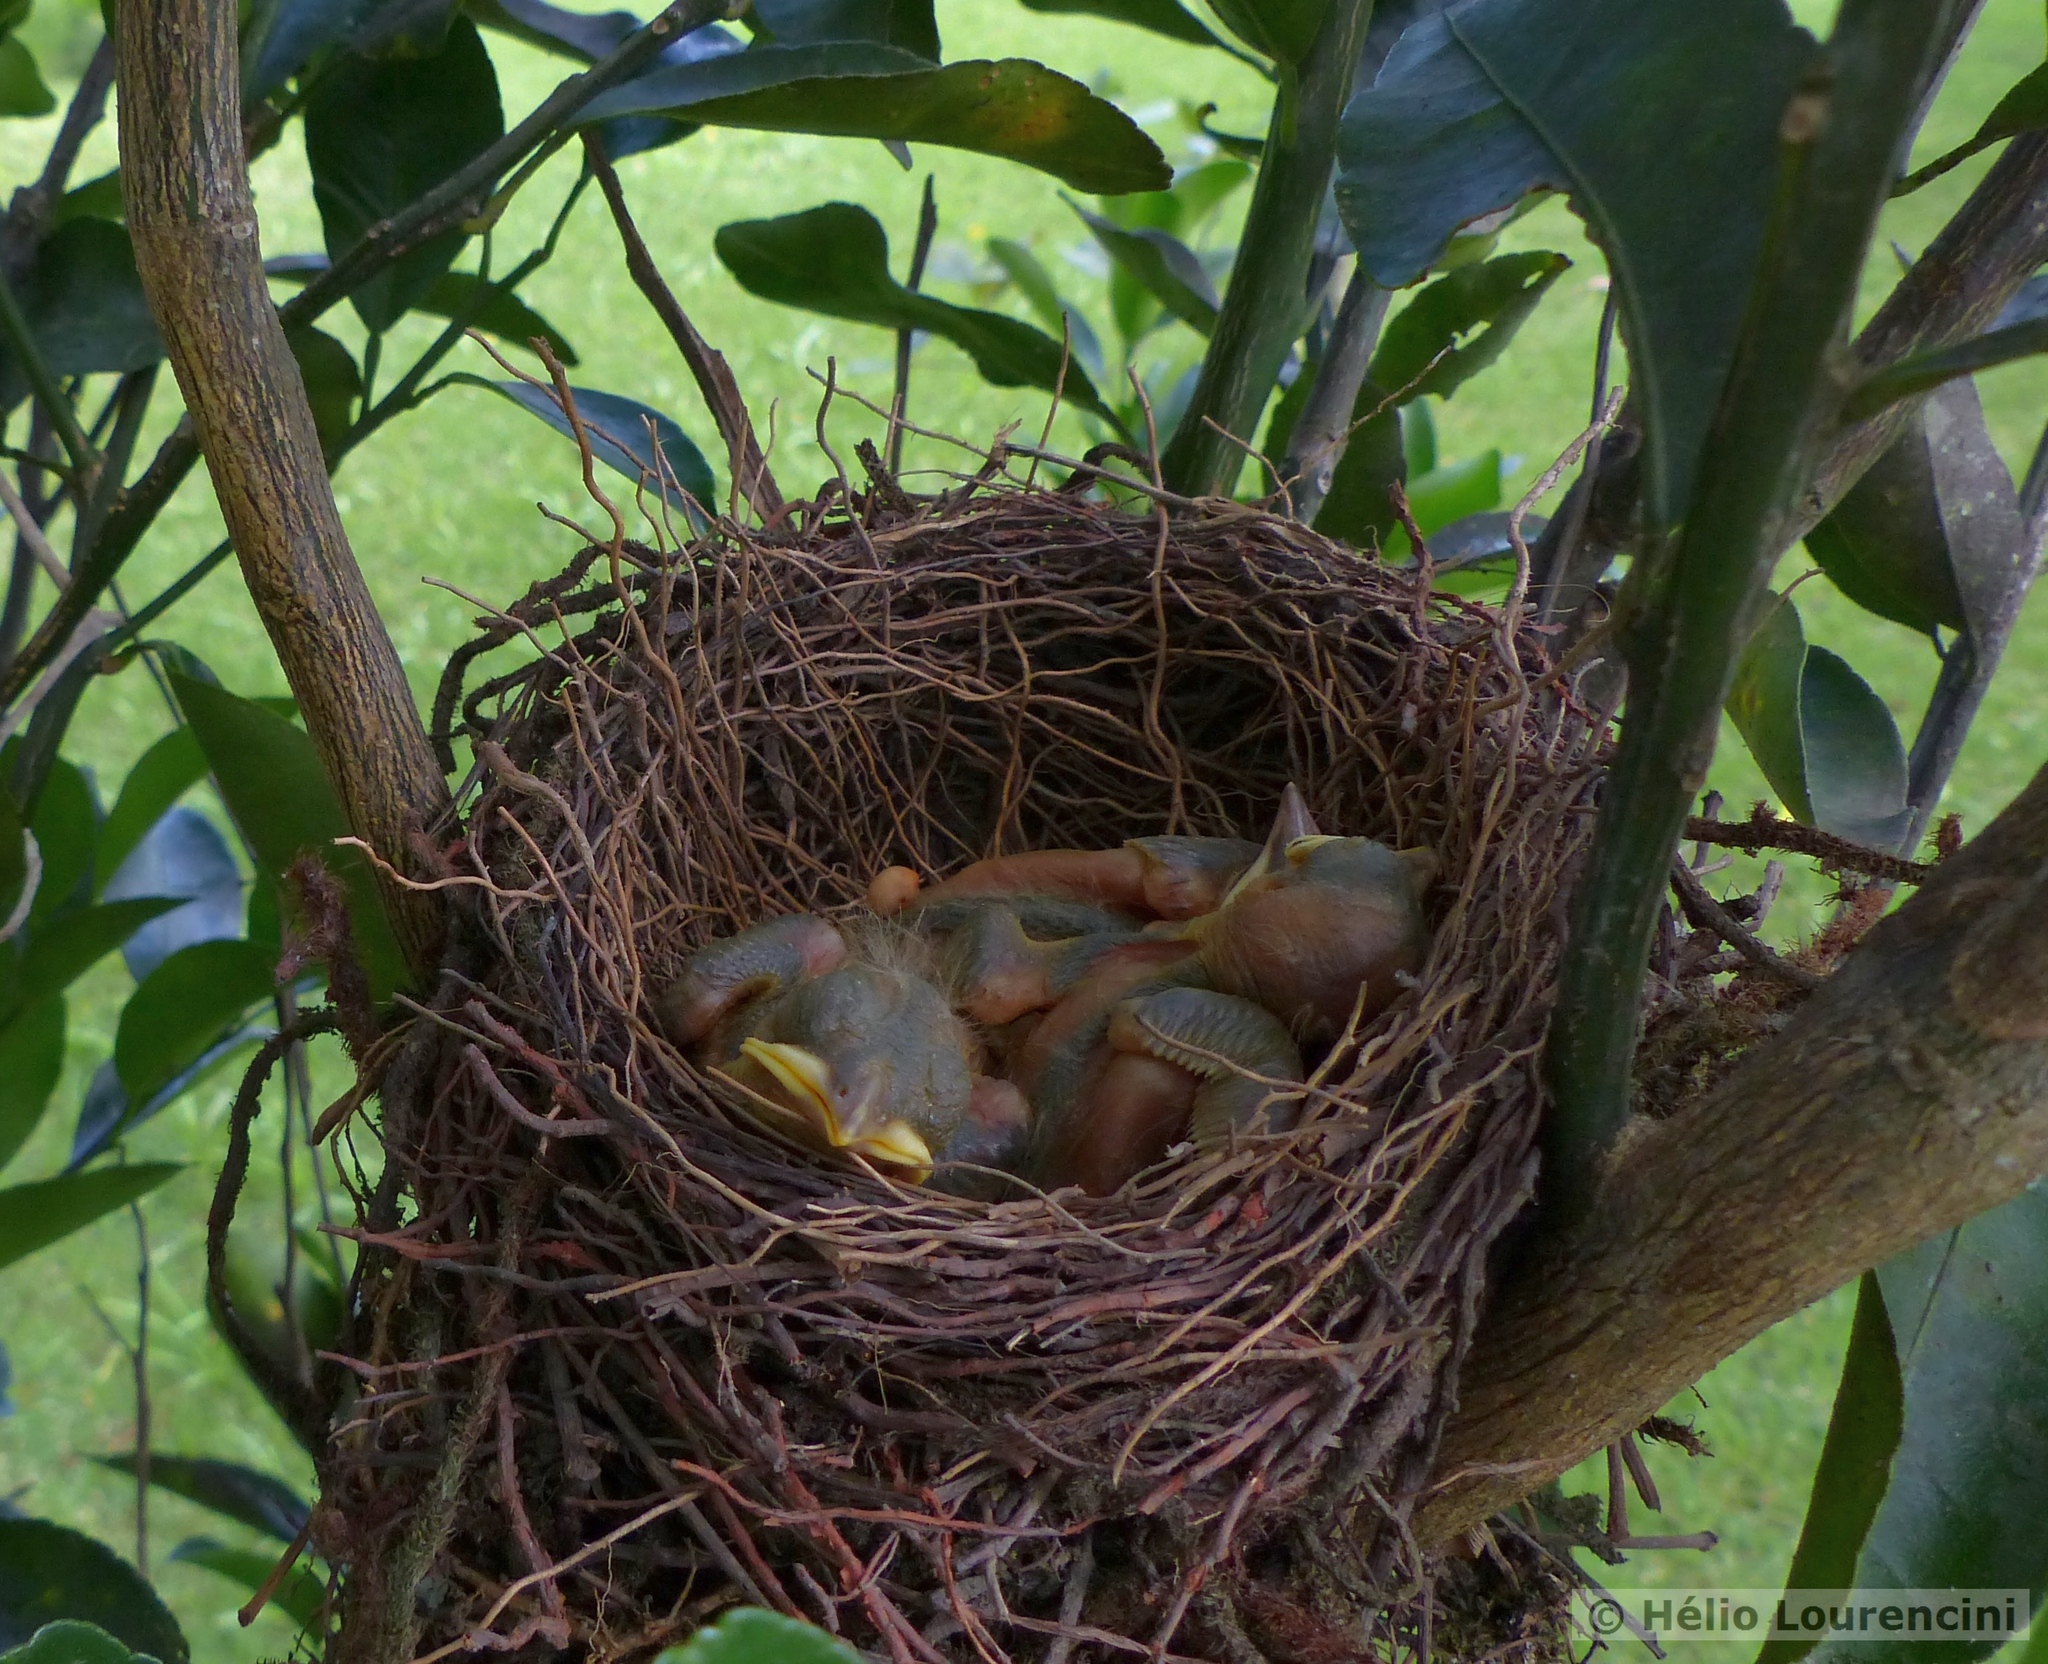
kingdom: Animalia
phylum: Chordata
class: Aves
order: Passeriformes
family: Turdidae
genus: Turdus
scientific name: Turdus leucomelas
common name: Pale-breasted thrush
